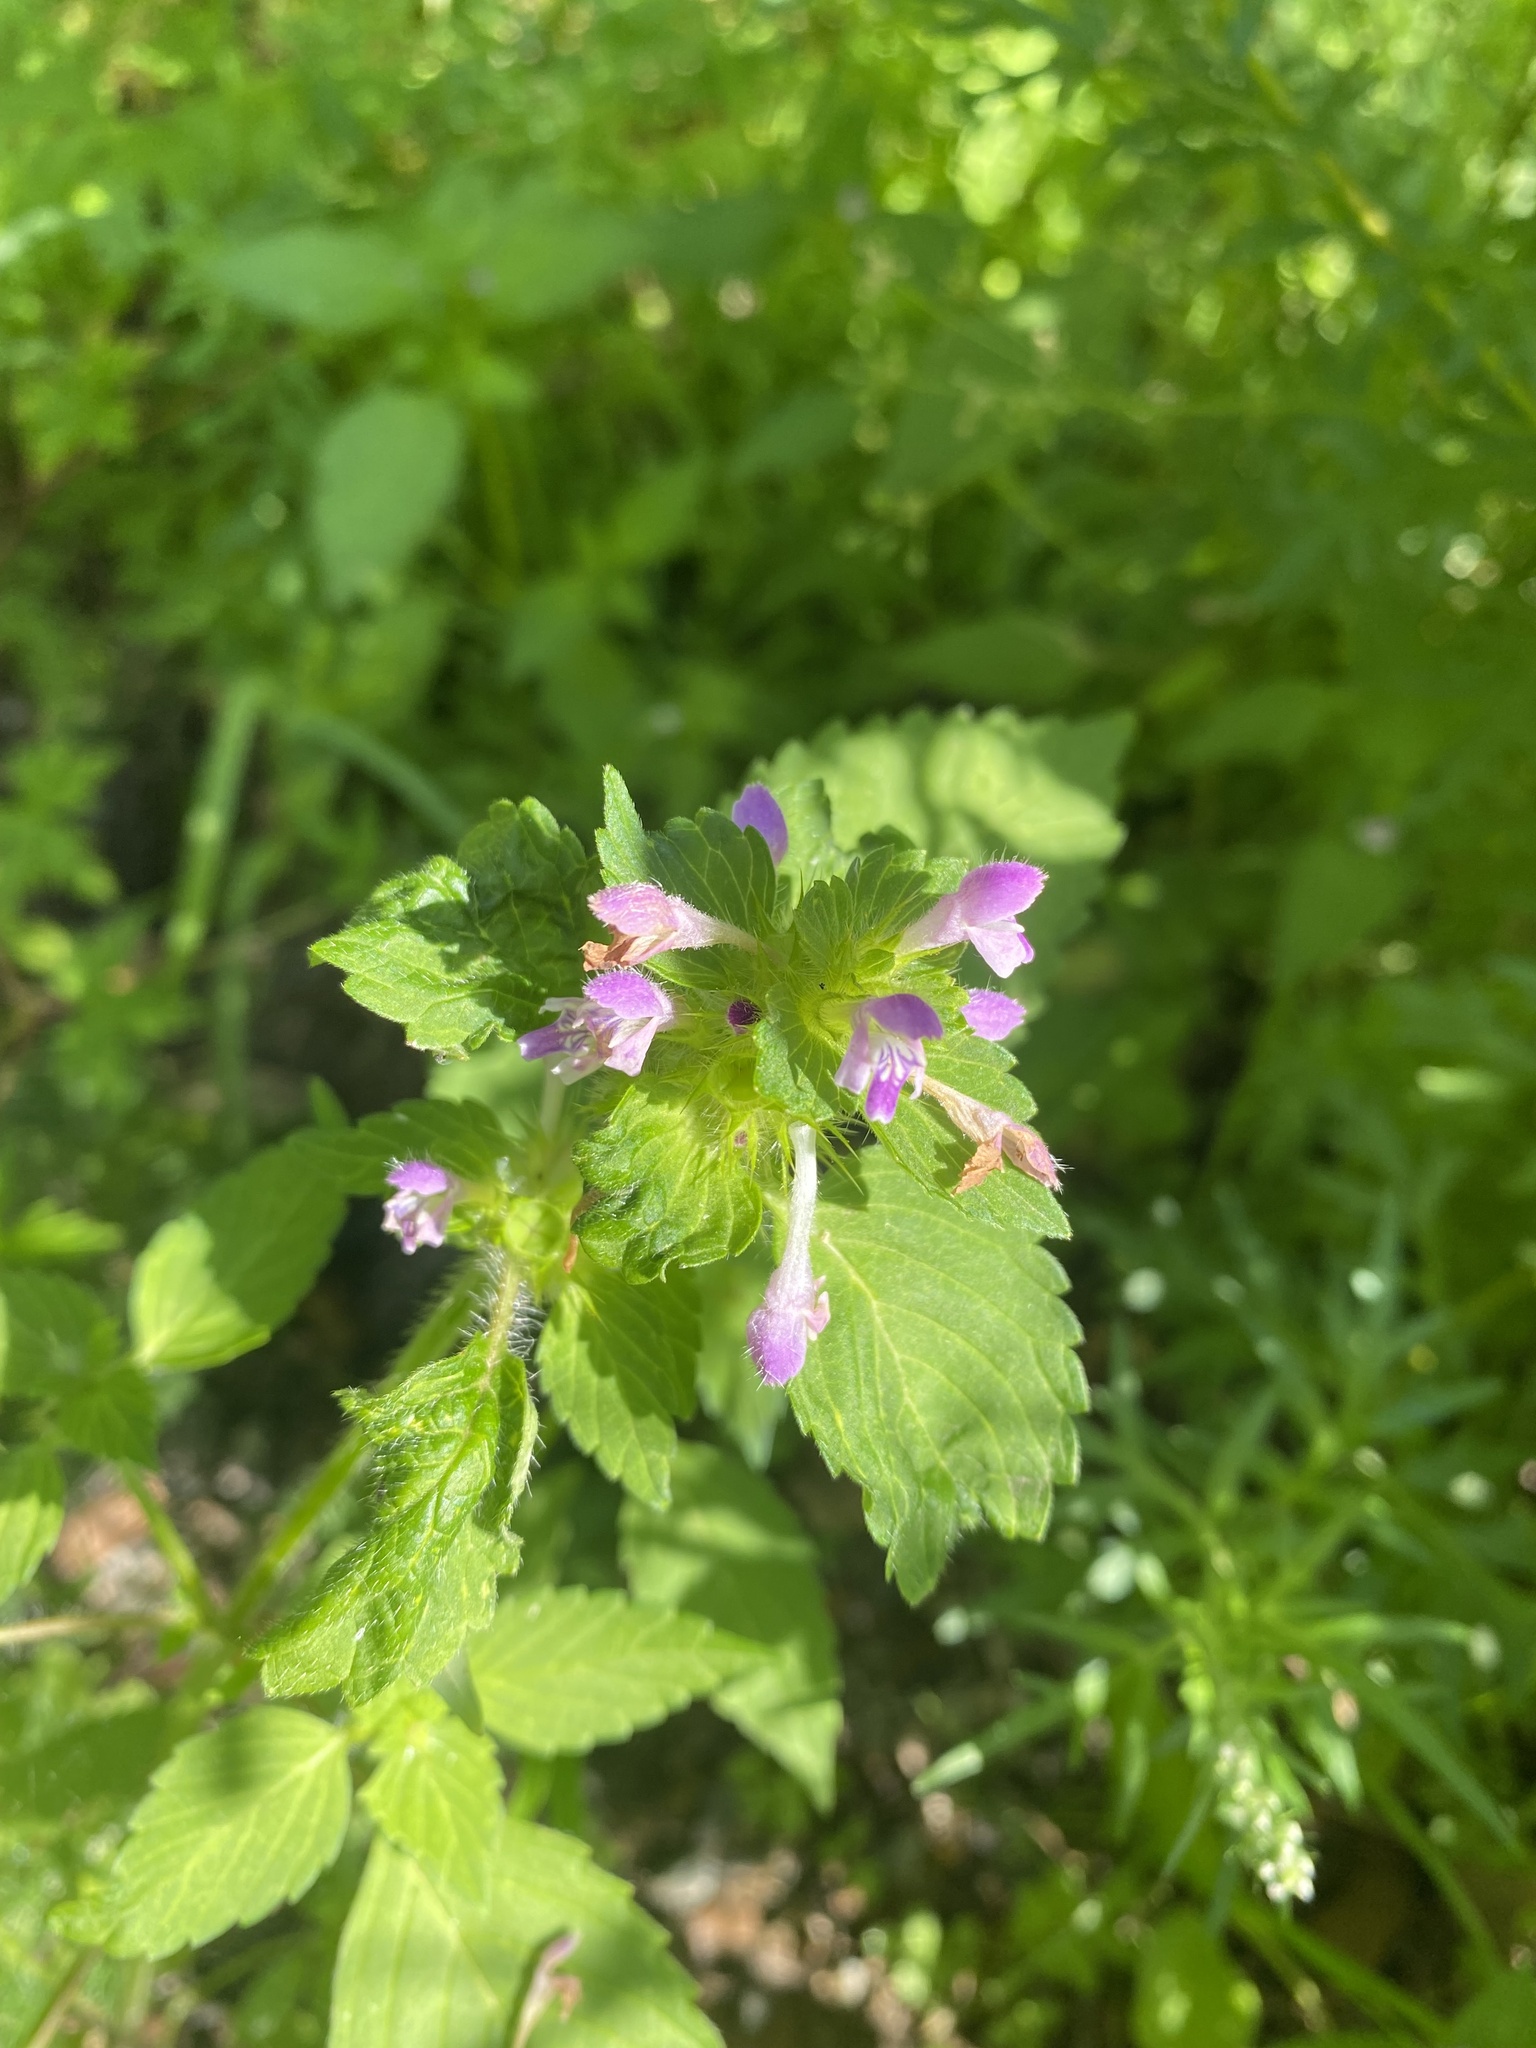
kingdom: Plantae
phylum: Tracheophyta
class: Magnoliopsida
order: Lamiales
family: Lamiaceae
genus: Galeopsis
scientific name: Galeopsis bifida
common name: Bifid hemp-nettle
